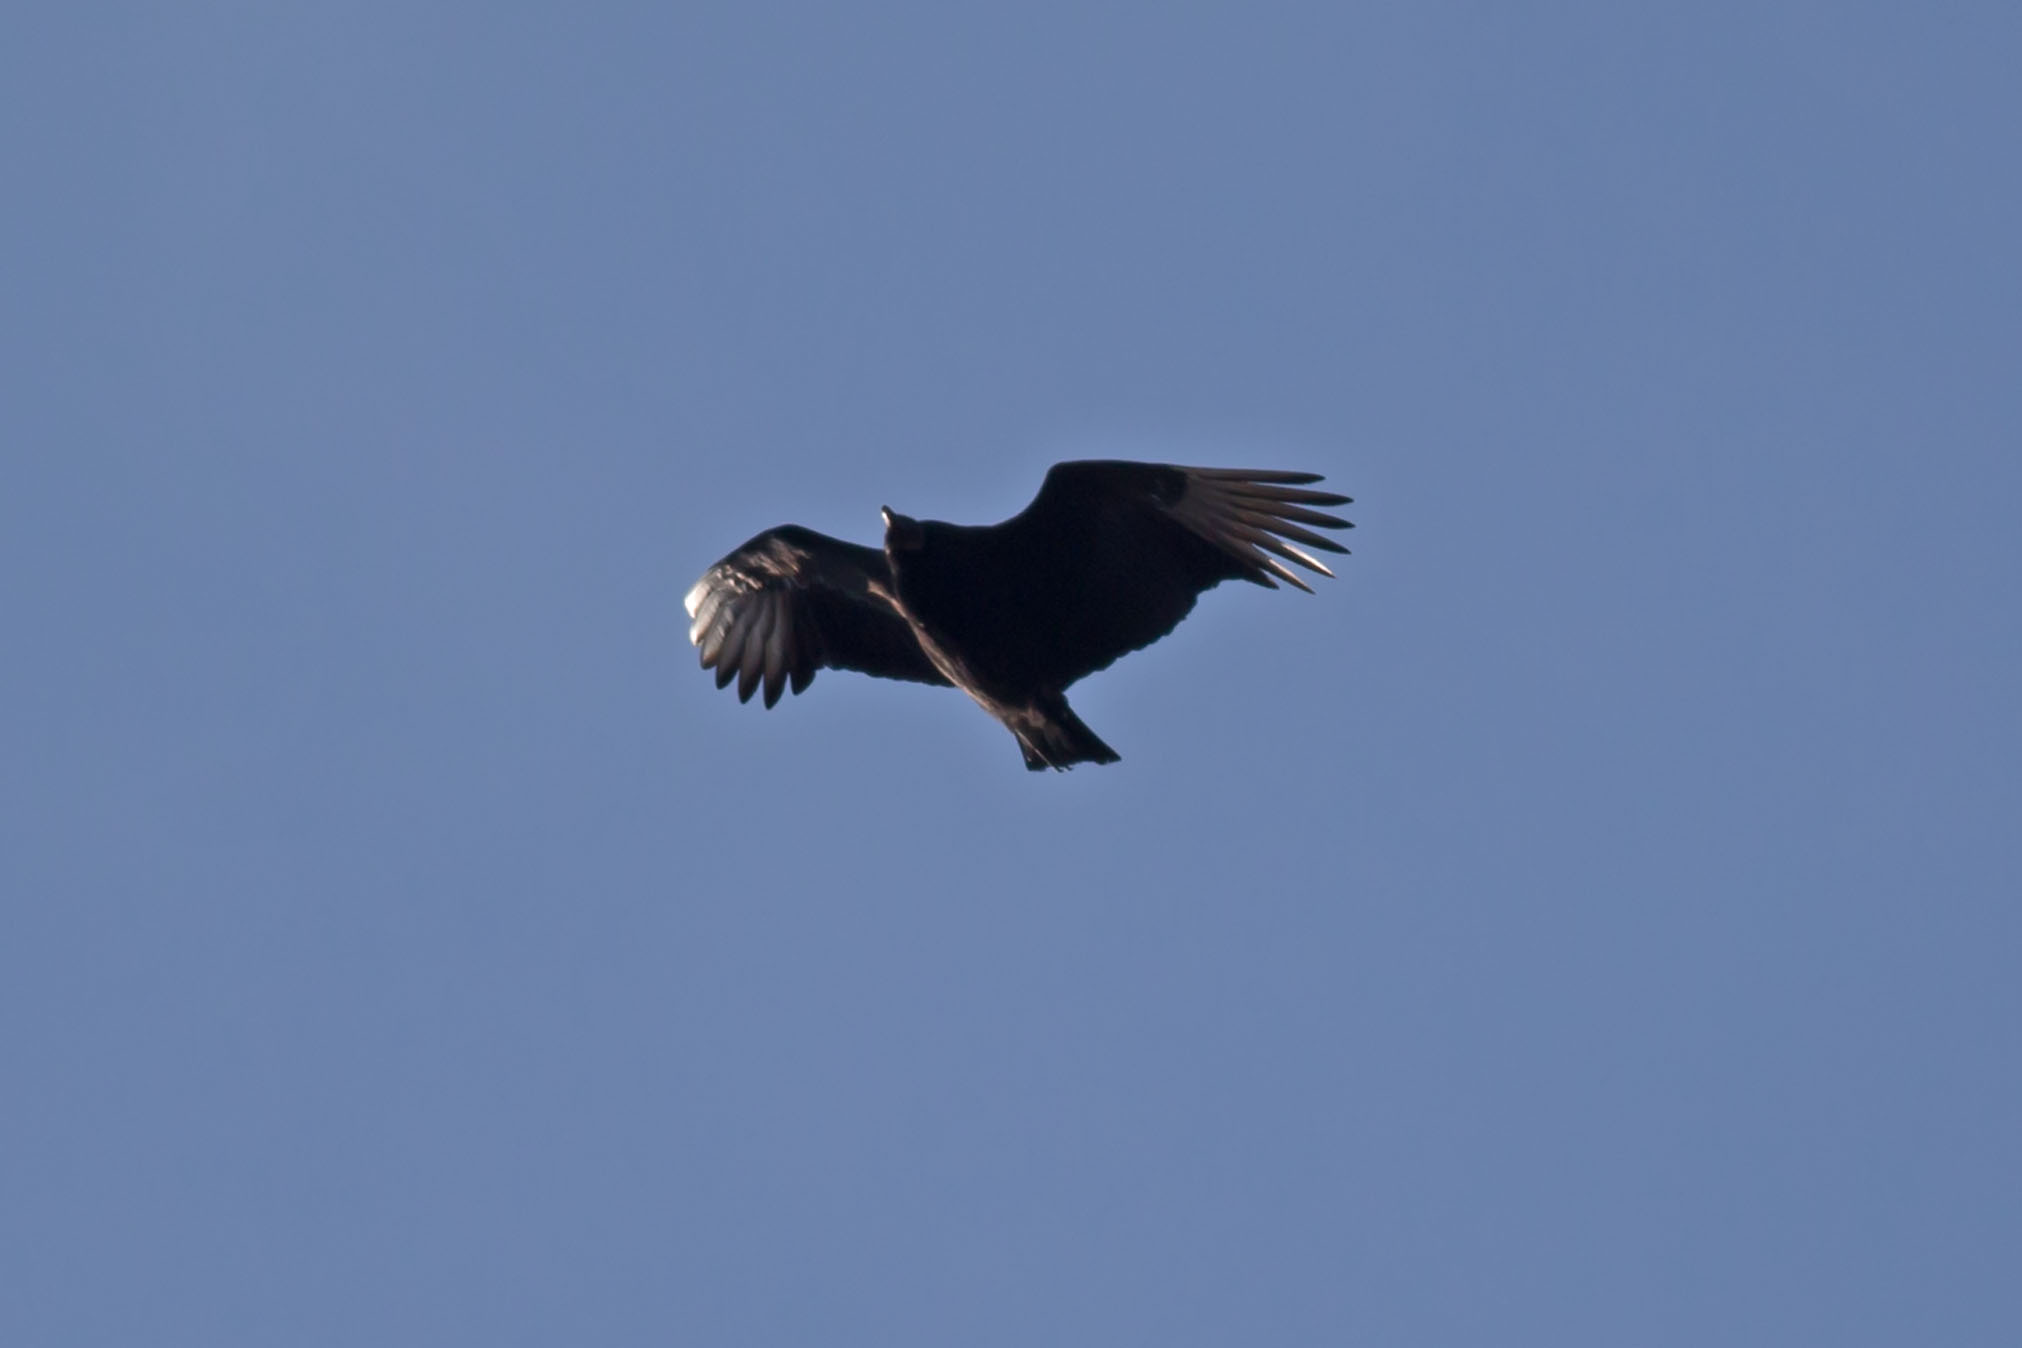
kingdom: Animalia
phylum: Chordata
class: Aves
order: Accipitriformes
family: Cathartidae
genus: Coragyps
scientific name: Coragyps atratus
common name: Black vulture
